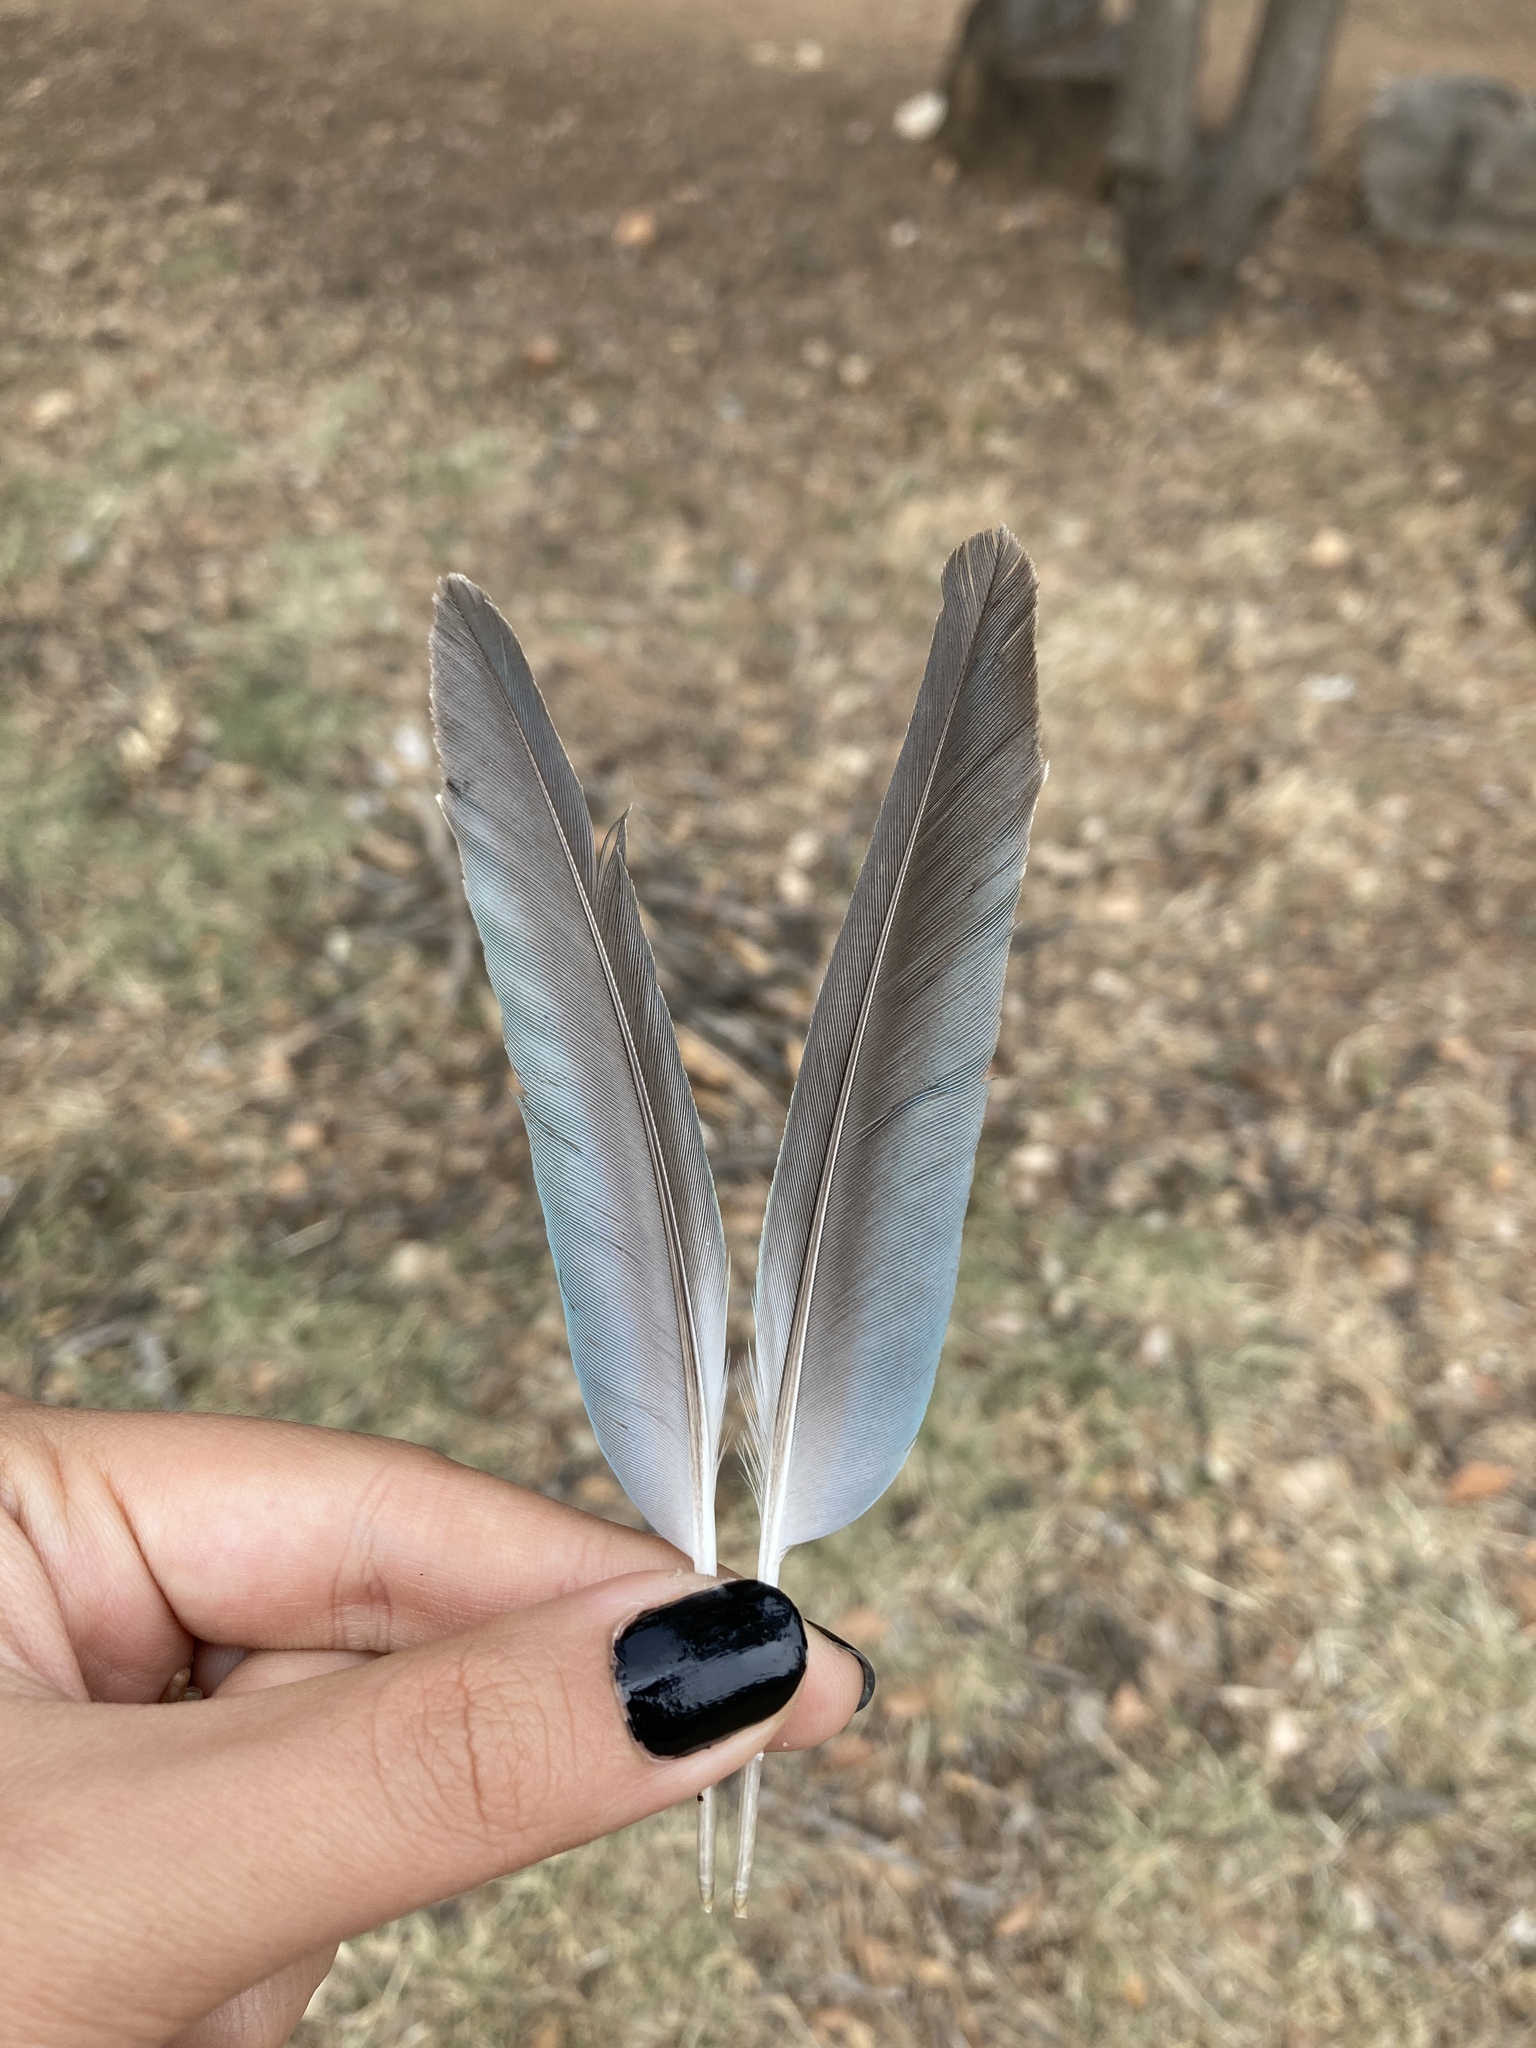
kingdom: Animalia
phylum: Chordata
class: Aves
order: Psittaciformes
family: Psittacidae
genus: Myiopsitta
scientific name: Myiopsitta monachus
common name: Monk parakeet
